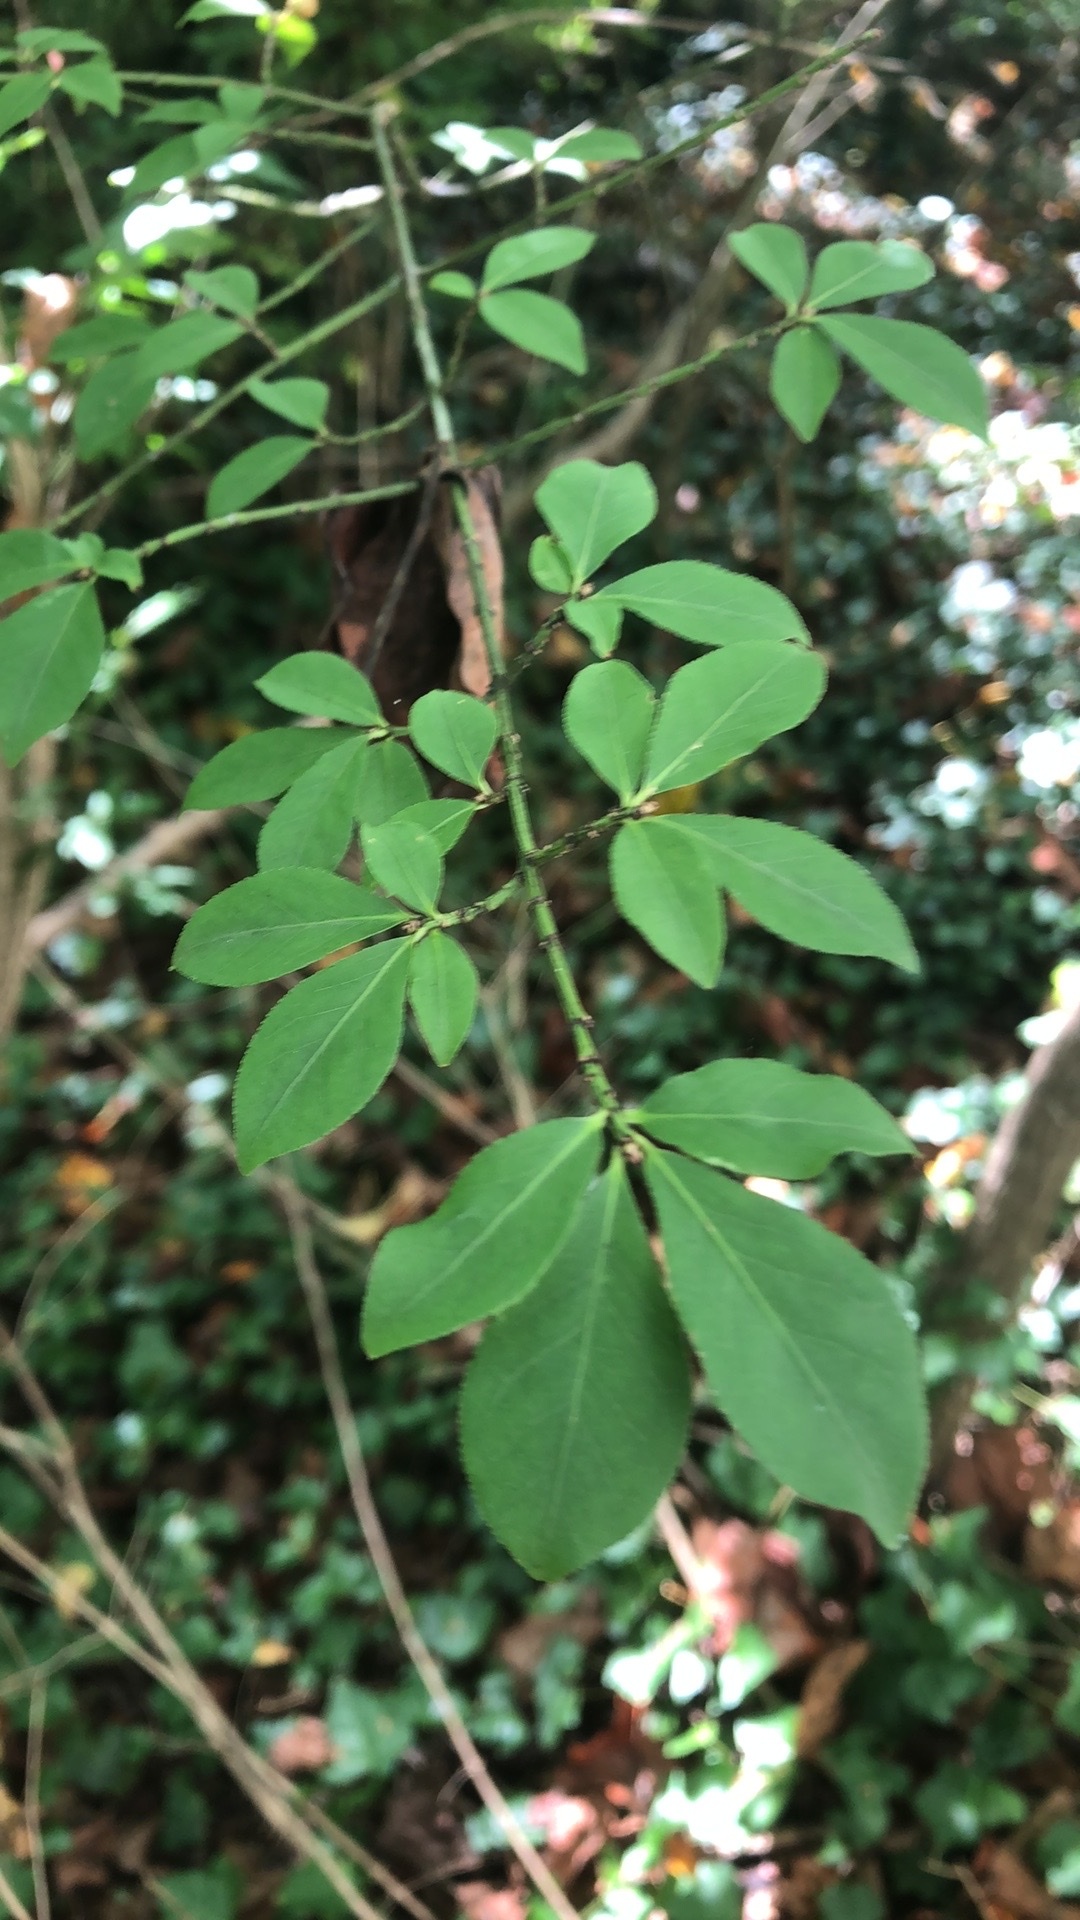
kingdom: Plantae
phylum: Tracheophyta
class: Magnoliopsida
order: Celastrales
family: Celastraceae
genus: Euonymus
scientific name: Euonymus alatus
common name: Winged euonymus
